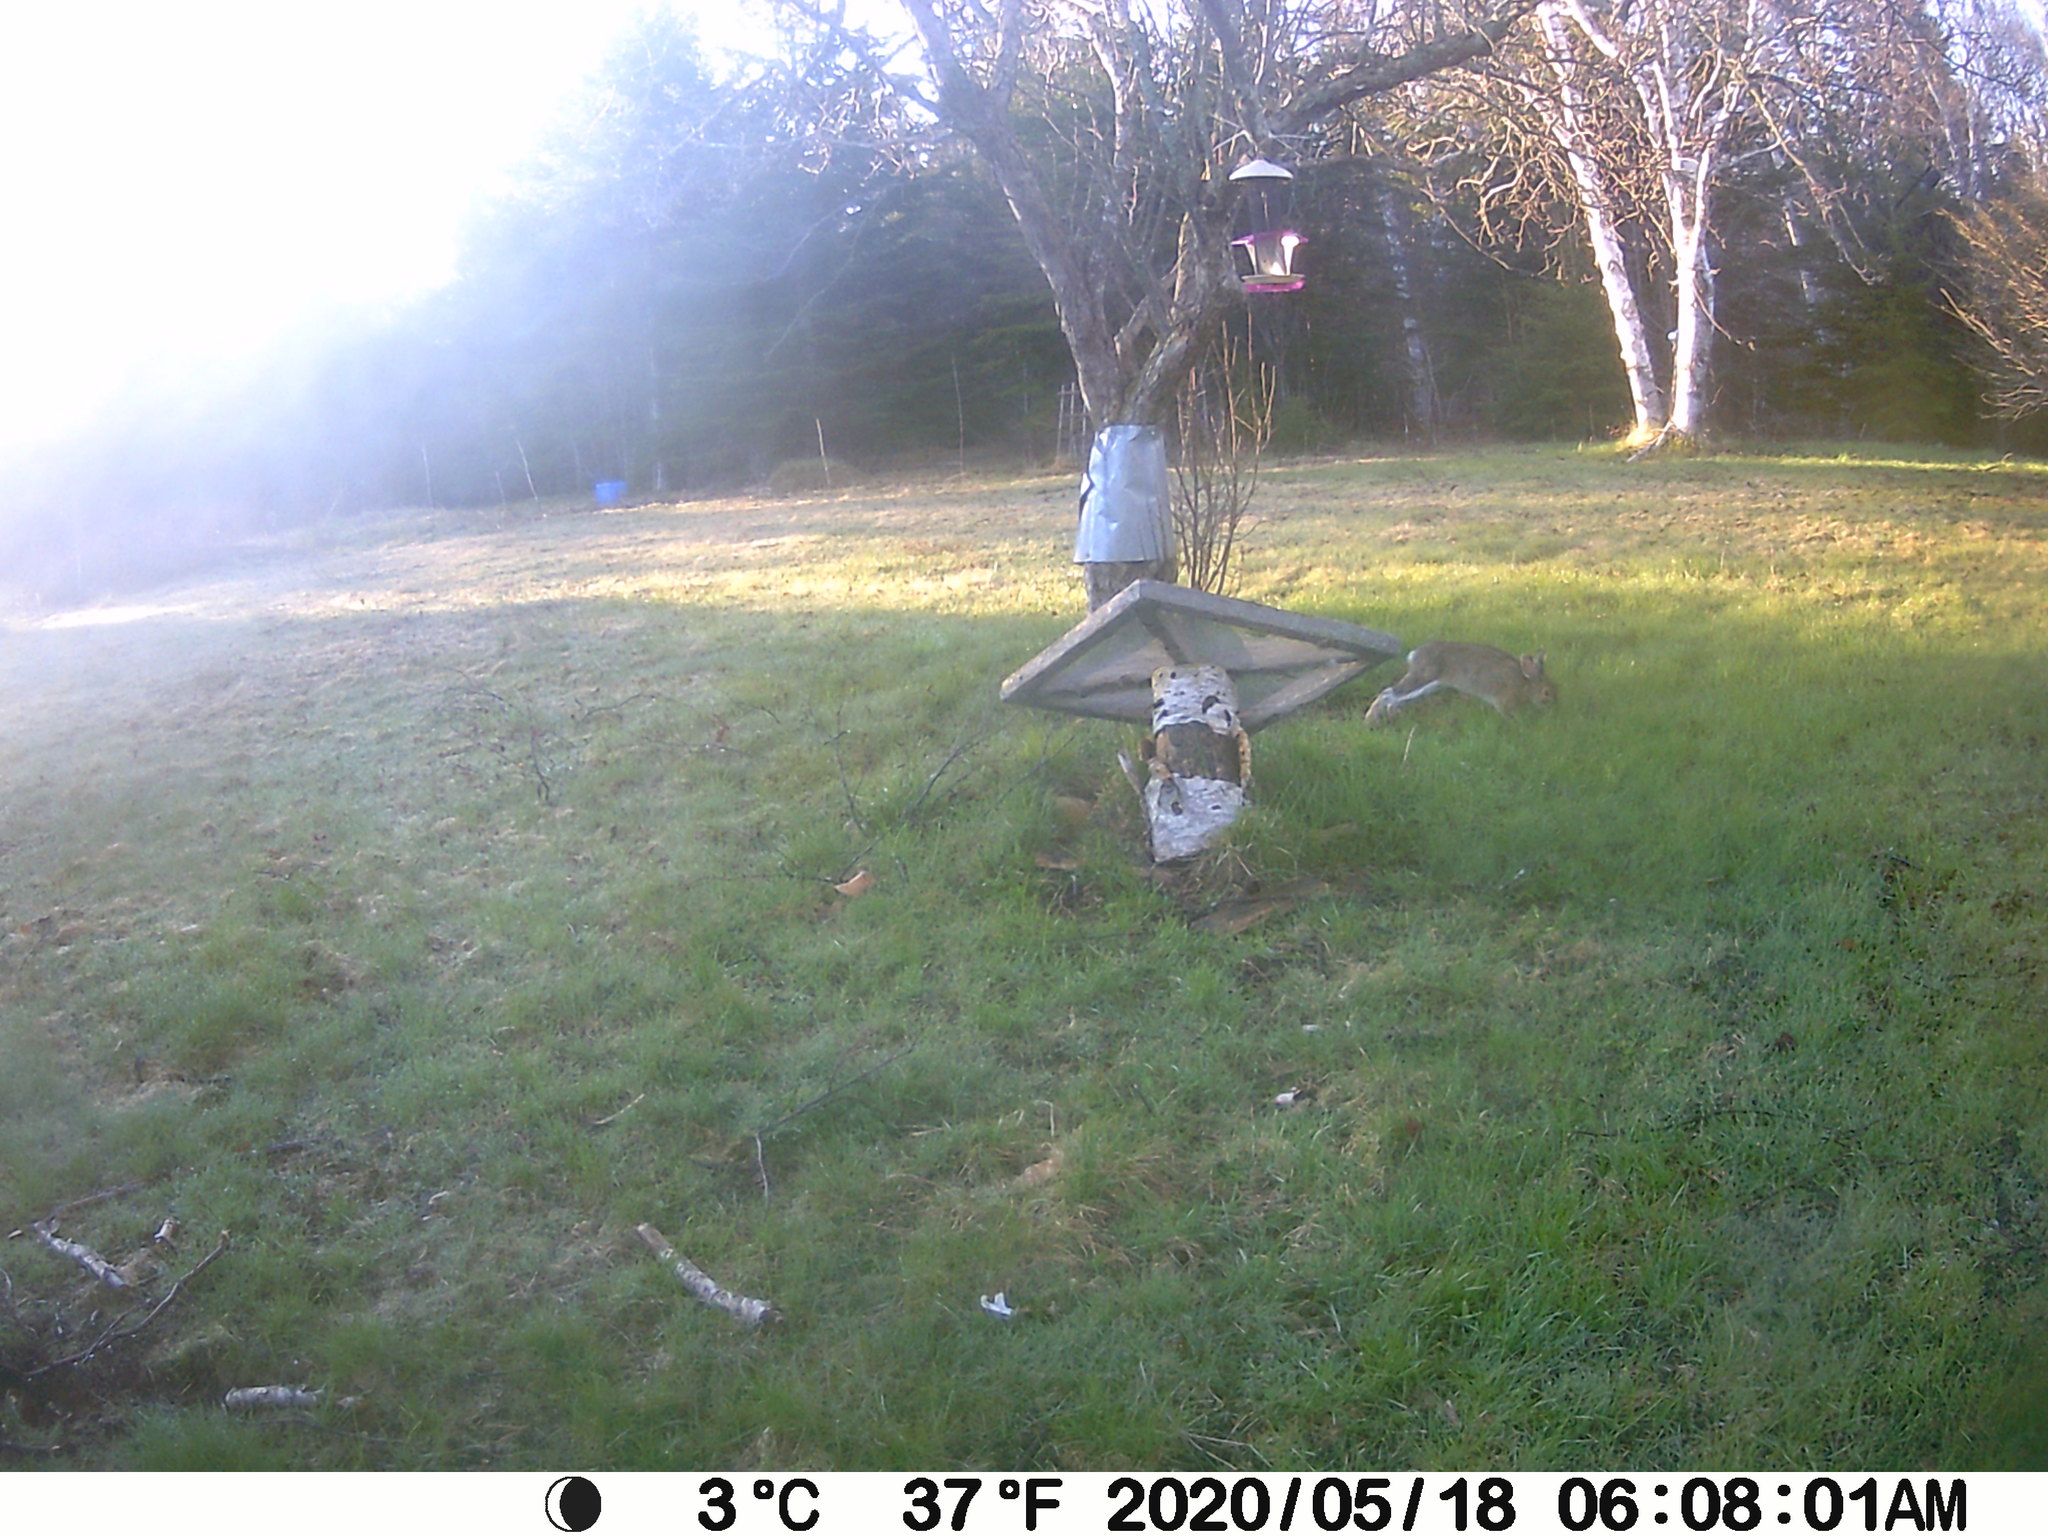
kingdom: Animalia
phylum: Chordata
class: Mammalia
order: Lagomorpha
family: Leporidae
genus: Lepus
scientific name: Lepus americanus
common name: Snowshoe hare
